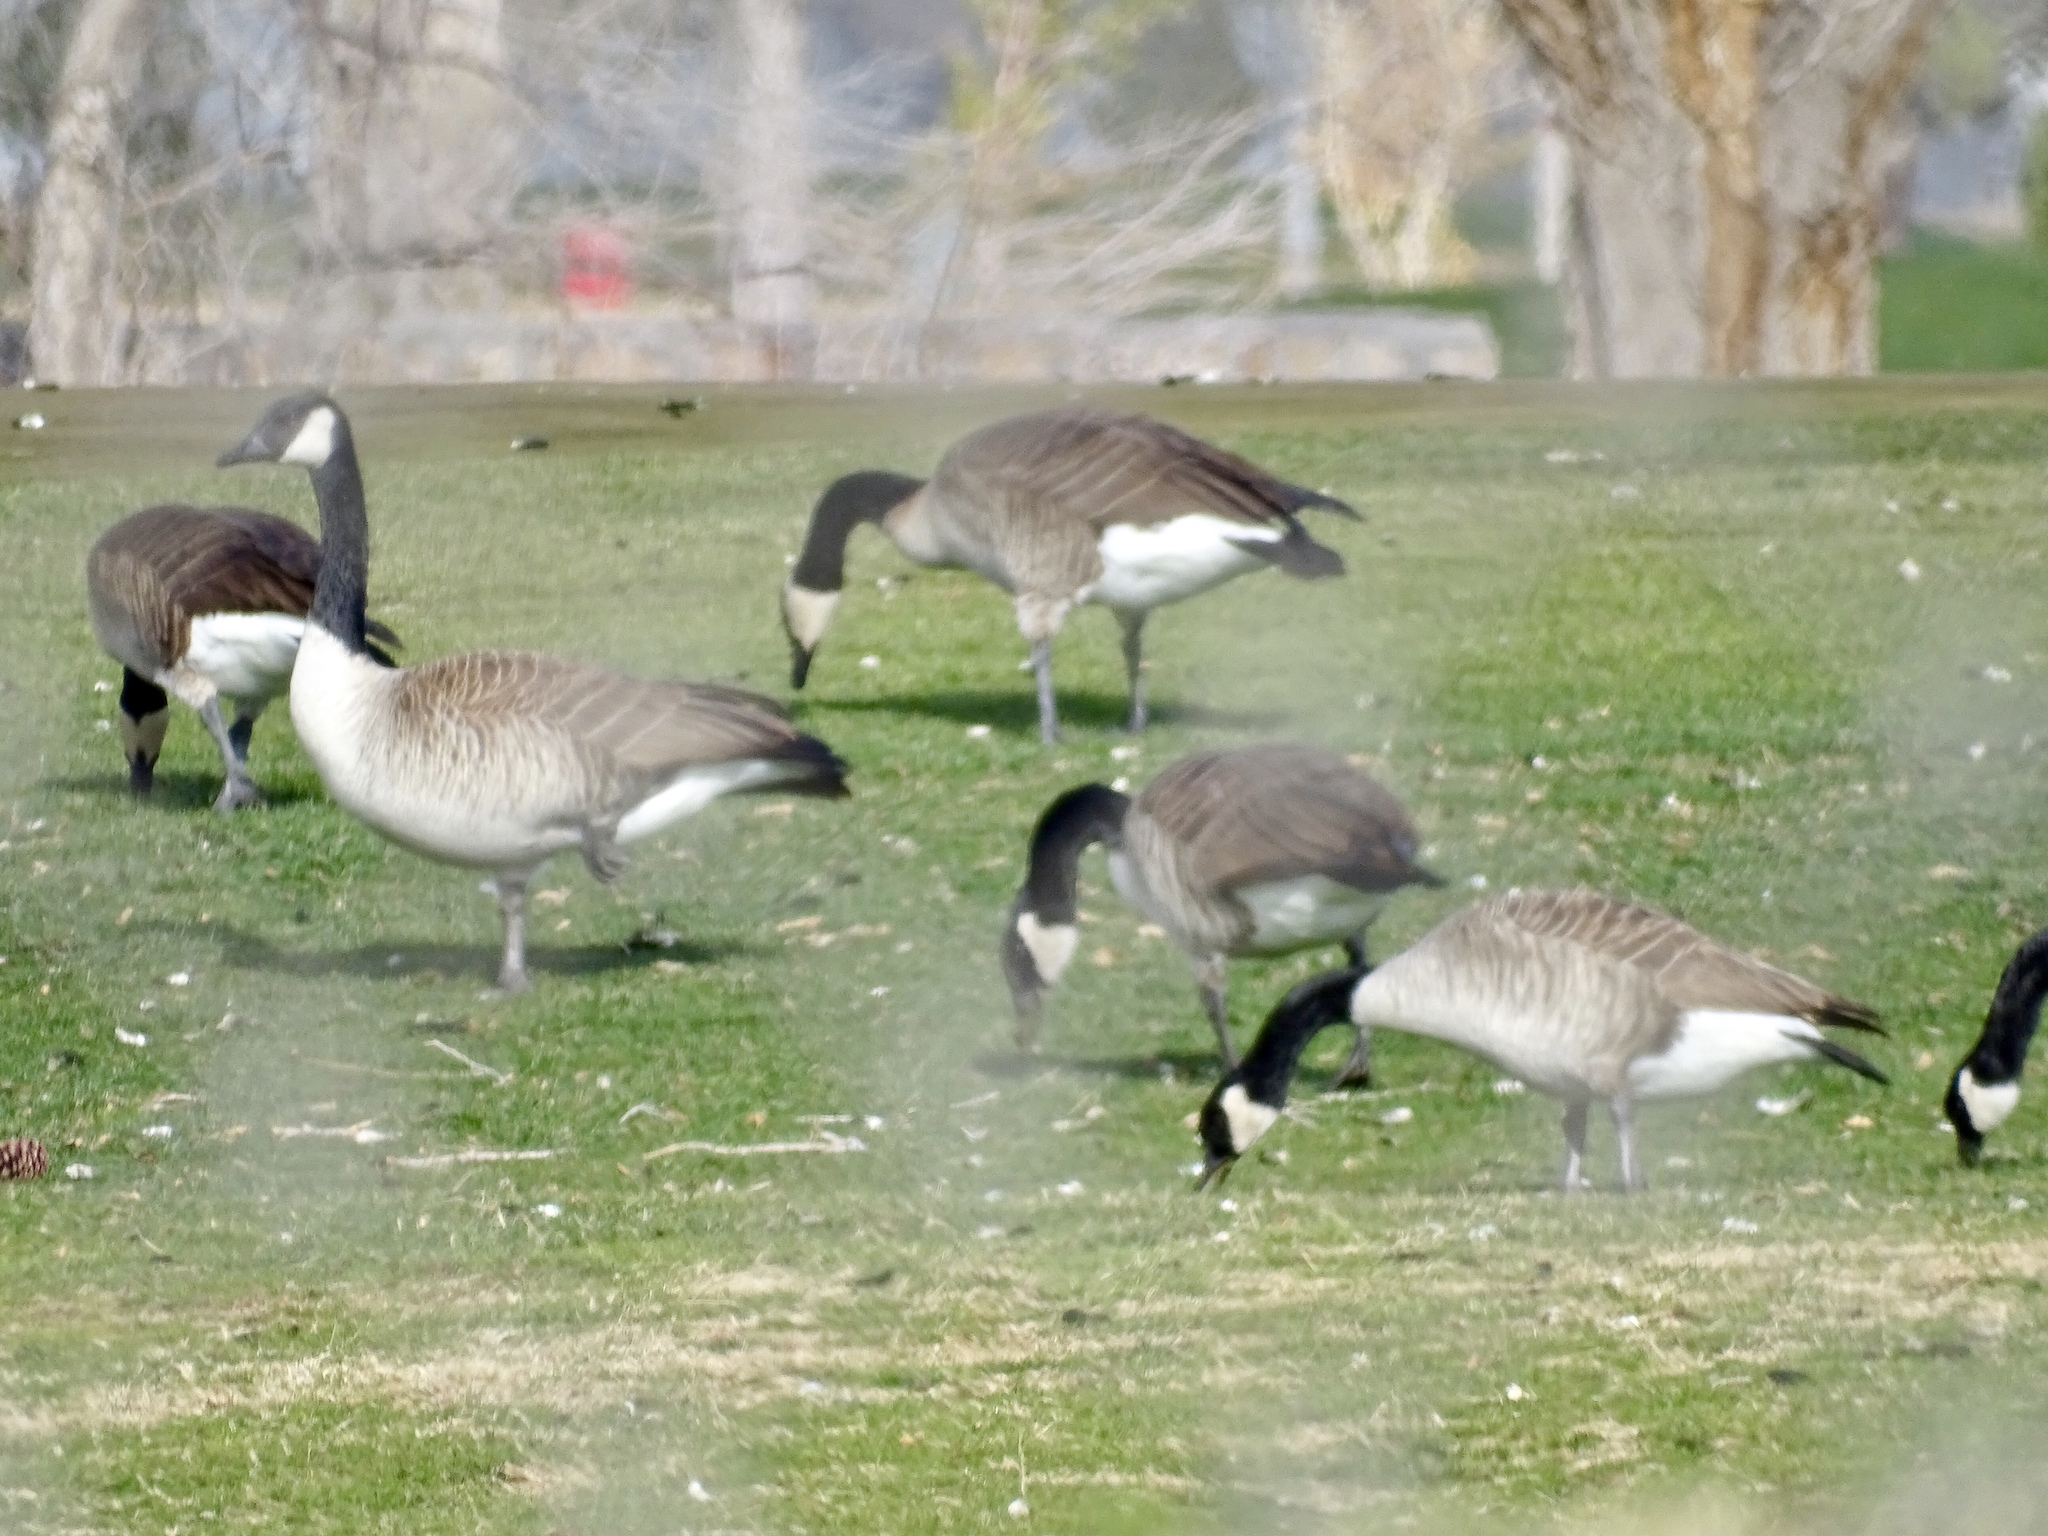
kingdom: Animalia
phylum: Chordata
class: Aves
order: Anseriformes
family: Anatidae
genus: Branta
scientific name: Branta canadensis
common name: Canada goose
